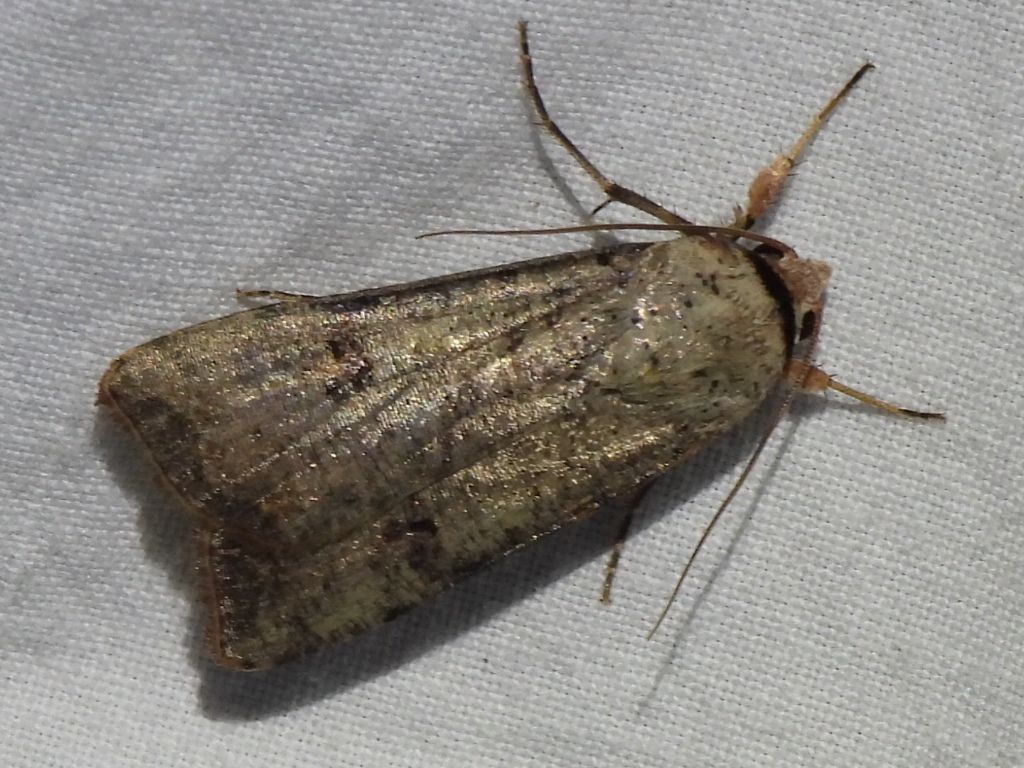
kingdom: Animalia
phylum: Arthropoda
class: Insecta
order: Lepidoptera
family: Noctuidae
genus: Anicla
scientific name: Anicla infecta
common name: Green cutworm
